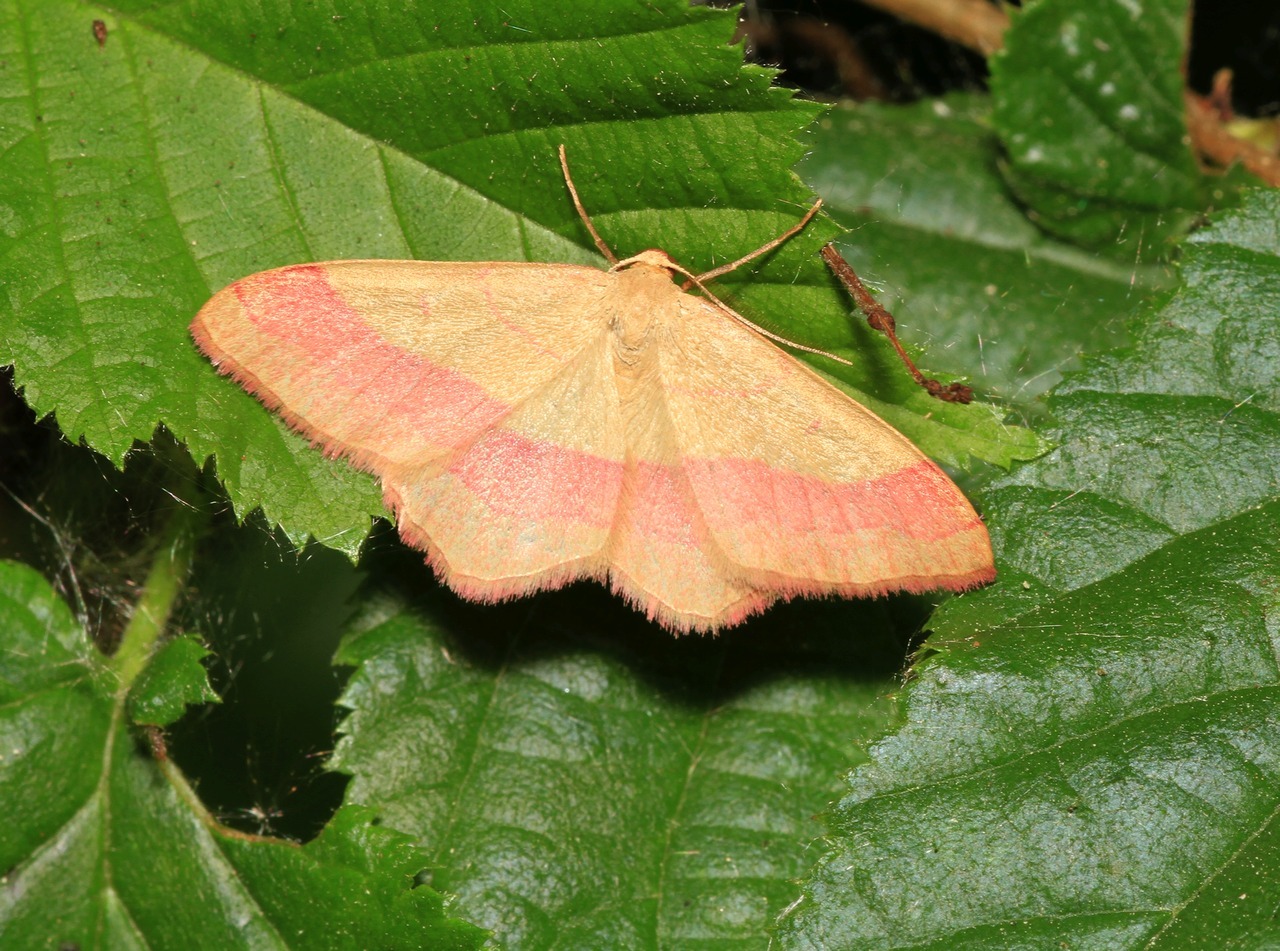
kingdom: Animalia
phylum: Arthropoda
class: Insecta
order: Lepidoptera
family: Geometridae
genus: Rhodostrophia
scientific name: Rhodostrophia vibicaria
